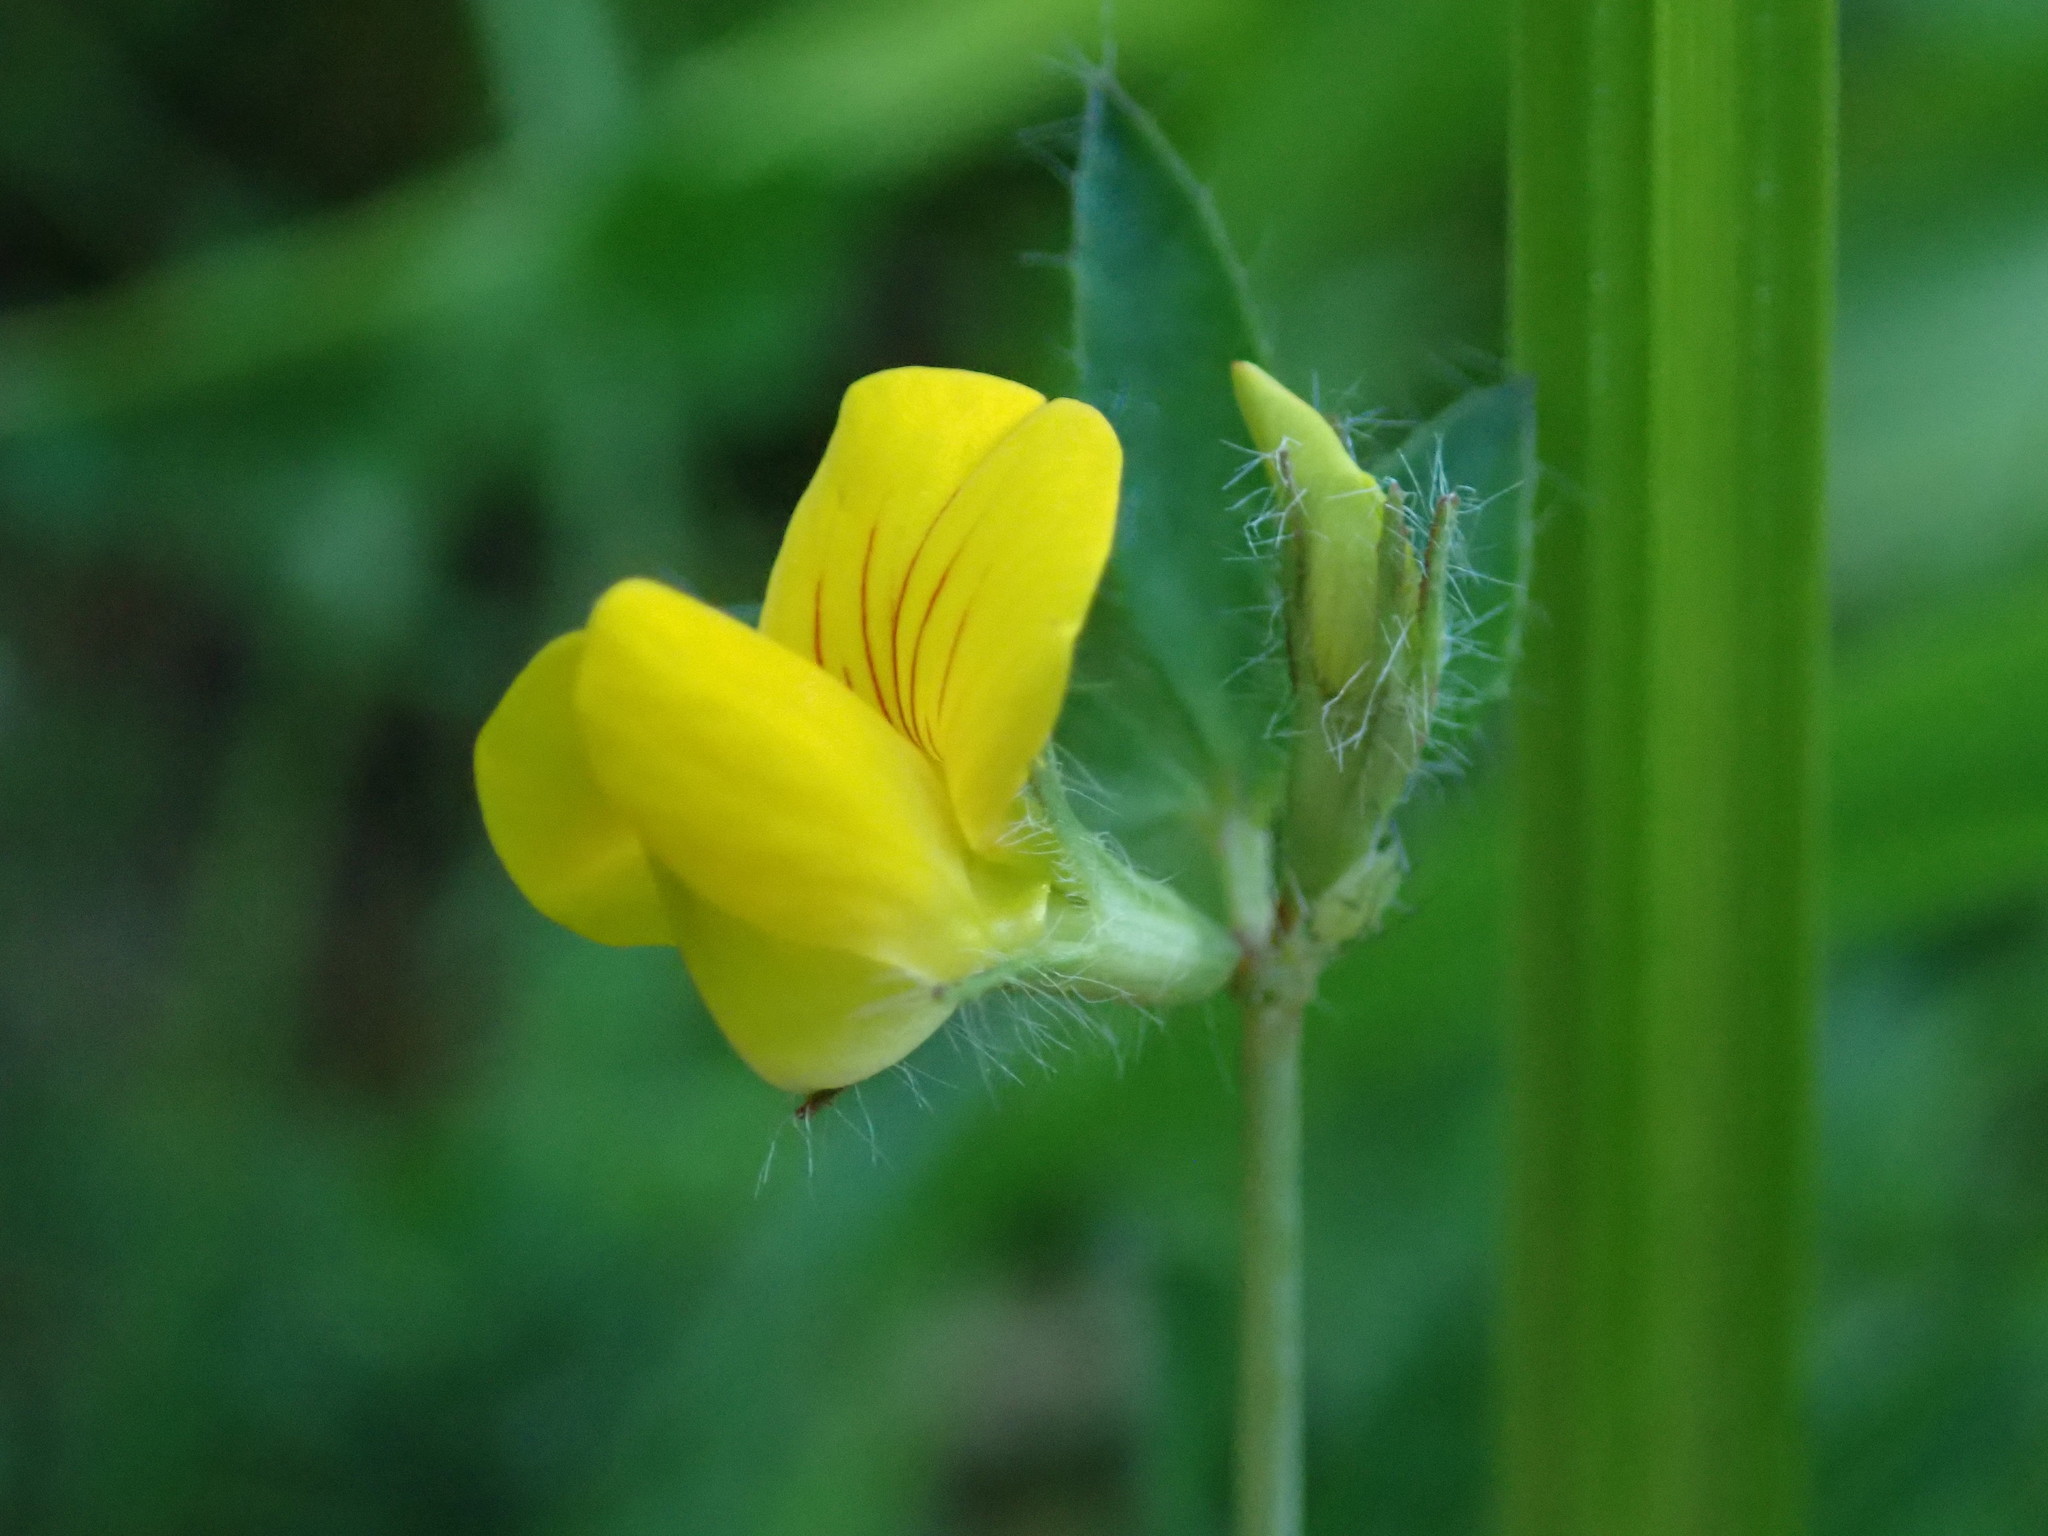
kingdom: Plantae
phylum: Tracheophyta
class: Magnoliopsida
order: Fabales
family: Fabaceae
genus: Lotus
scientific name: Lotus pedunculatus
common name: Greater birdsfoot-trefoil
